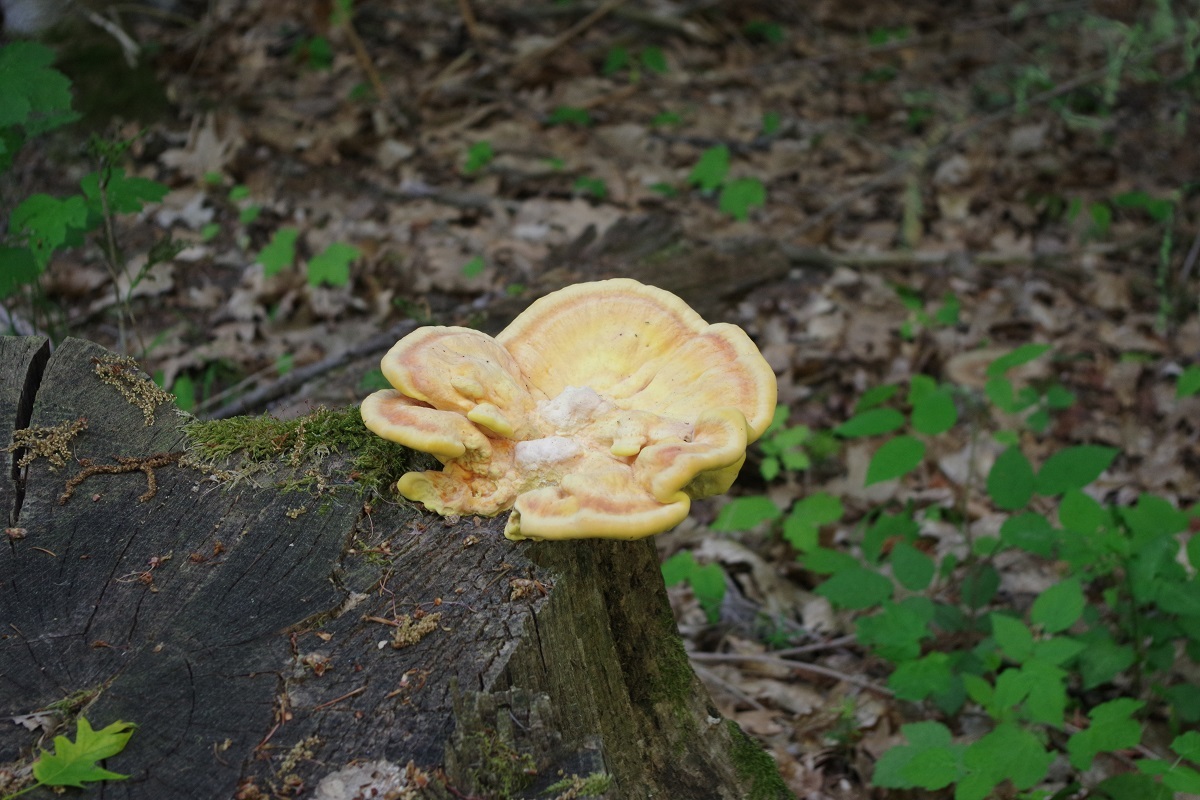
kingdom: Fungi
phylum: Basidiomycota
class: Agaricomycetes
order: Polyporales
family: Laetiporaceae
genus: Laetiporus
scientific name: Laetiporus sulphureus
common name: Chicken of the woods
